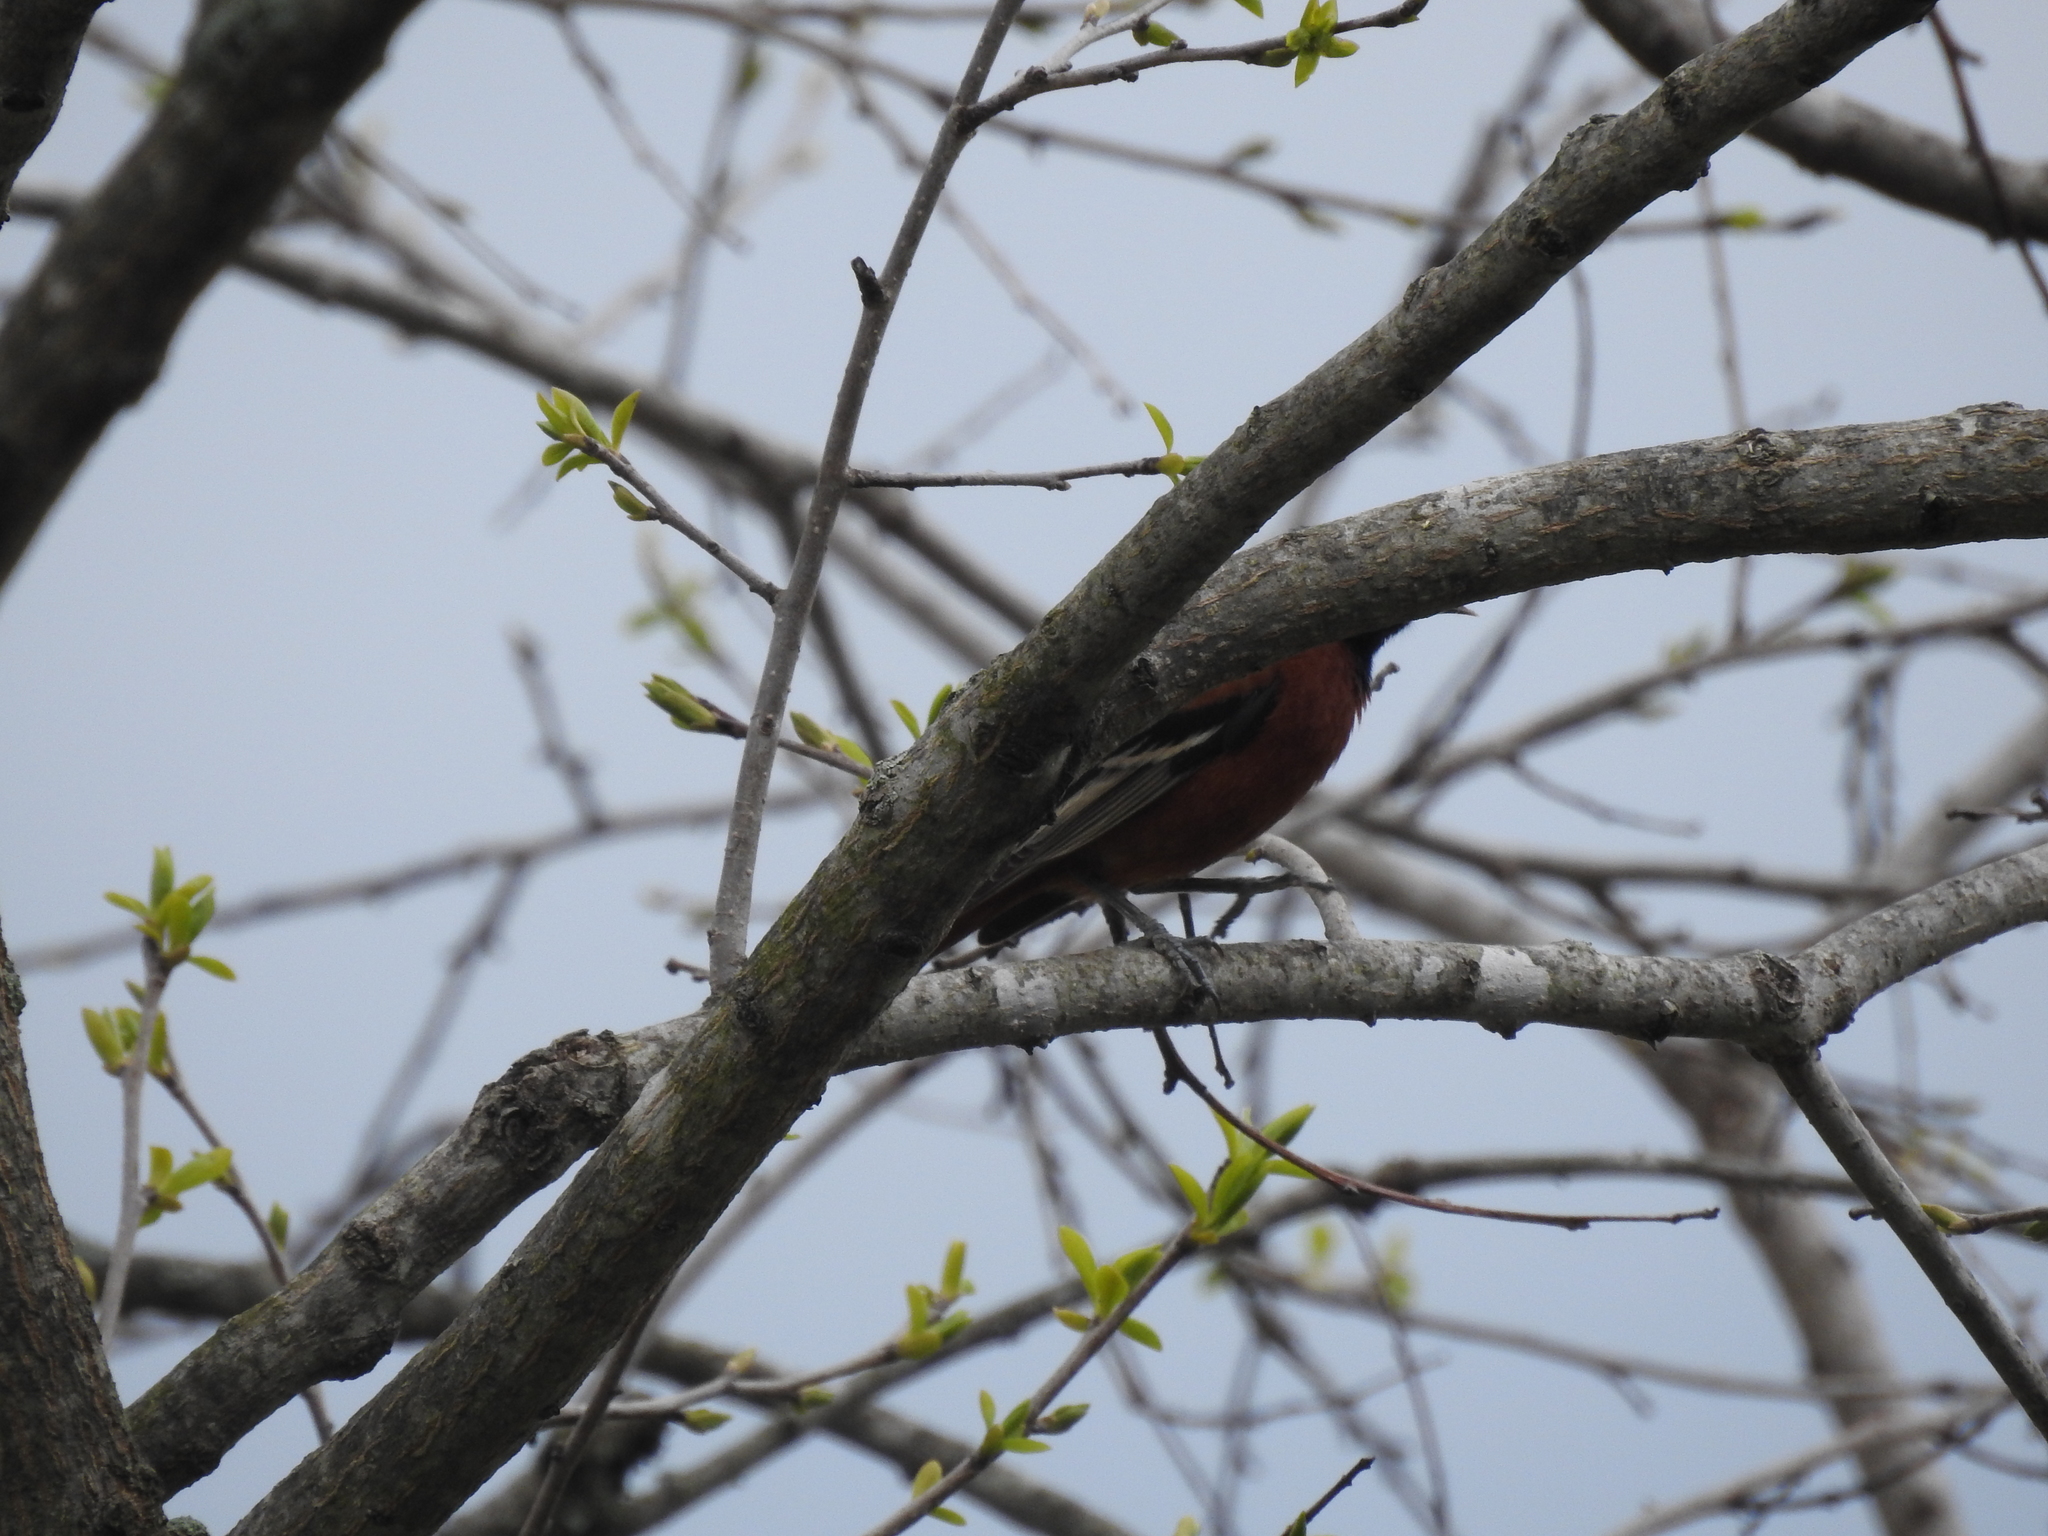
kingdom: Animalia
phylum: Chordata
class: Aves
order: Passeriformes
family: Icteridae
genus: Icterus
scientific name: Icterus spurius
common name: Orchard oriole
